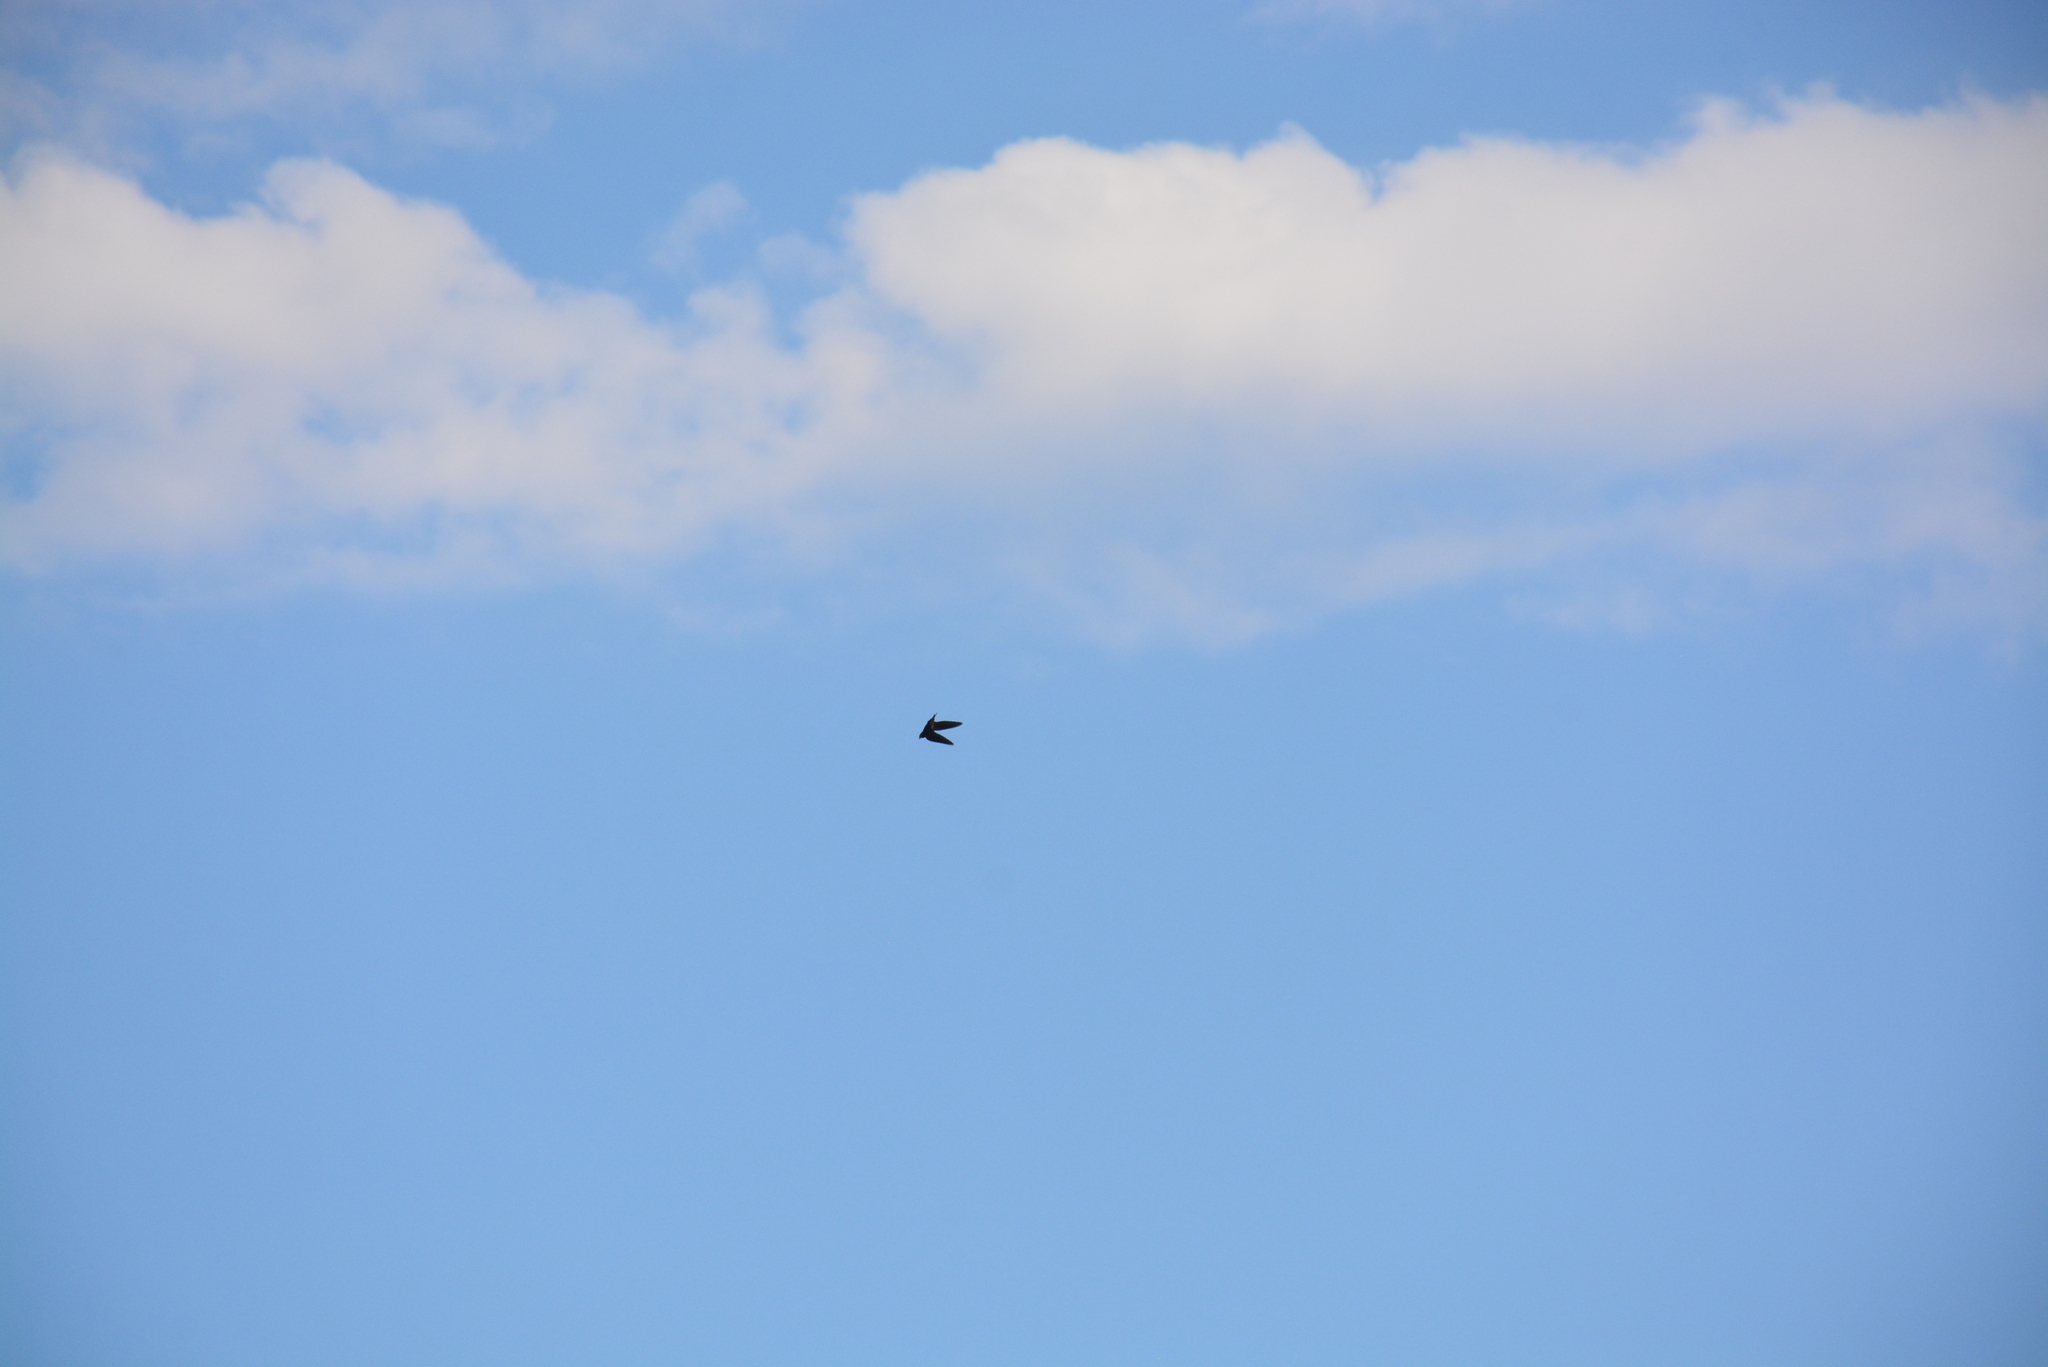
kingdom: Animalia
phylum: Chordata
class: Aves
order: Apodiformes
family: Apodidae
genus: Apus
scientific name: Apus apus
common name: Common swift
